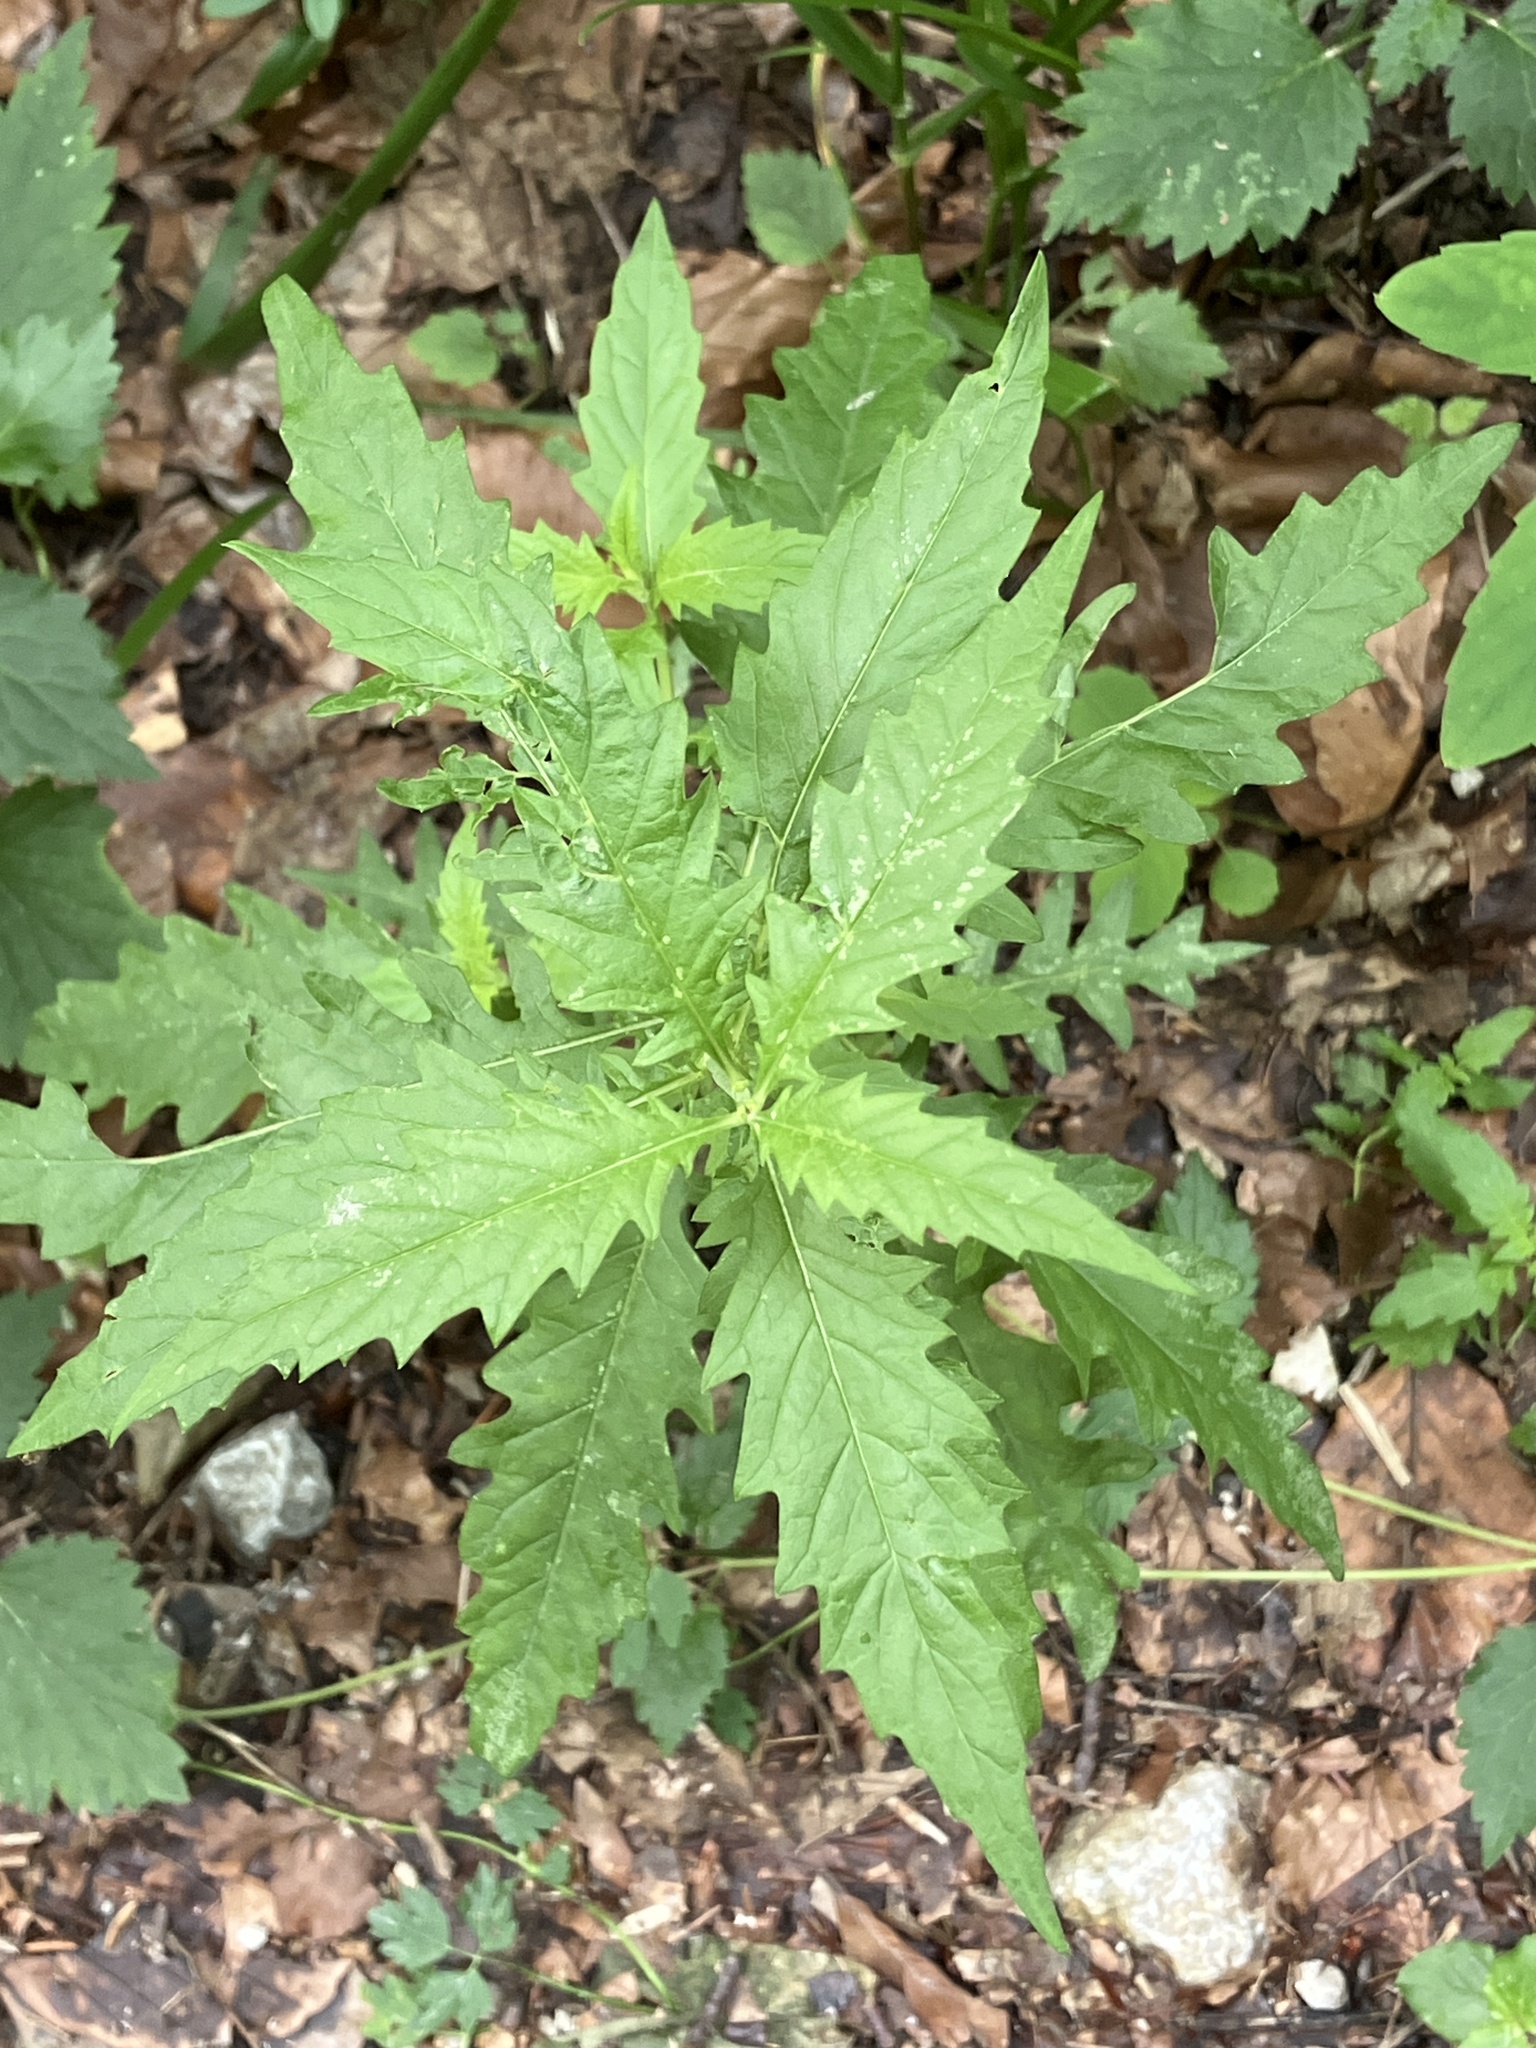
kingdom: Plantae
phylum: Tracheophyta
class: Magnoliopsida
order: Lamiales
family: Lamiaceae
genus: Lycopus
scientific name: Lycopus europaeus
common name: European bugleweed
